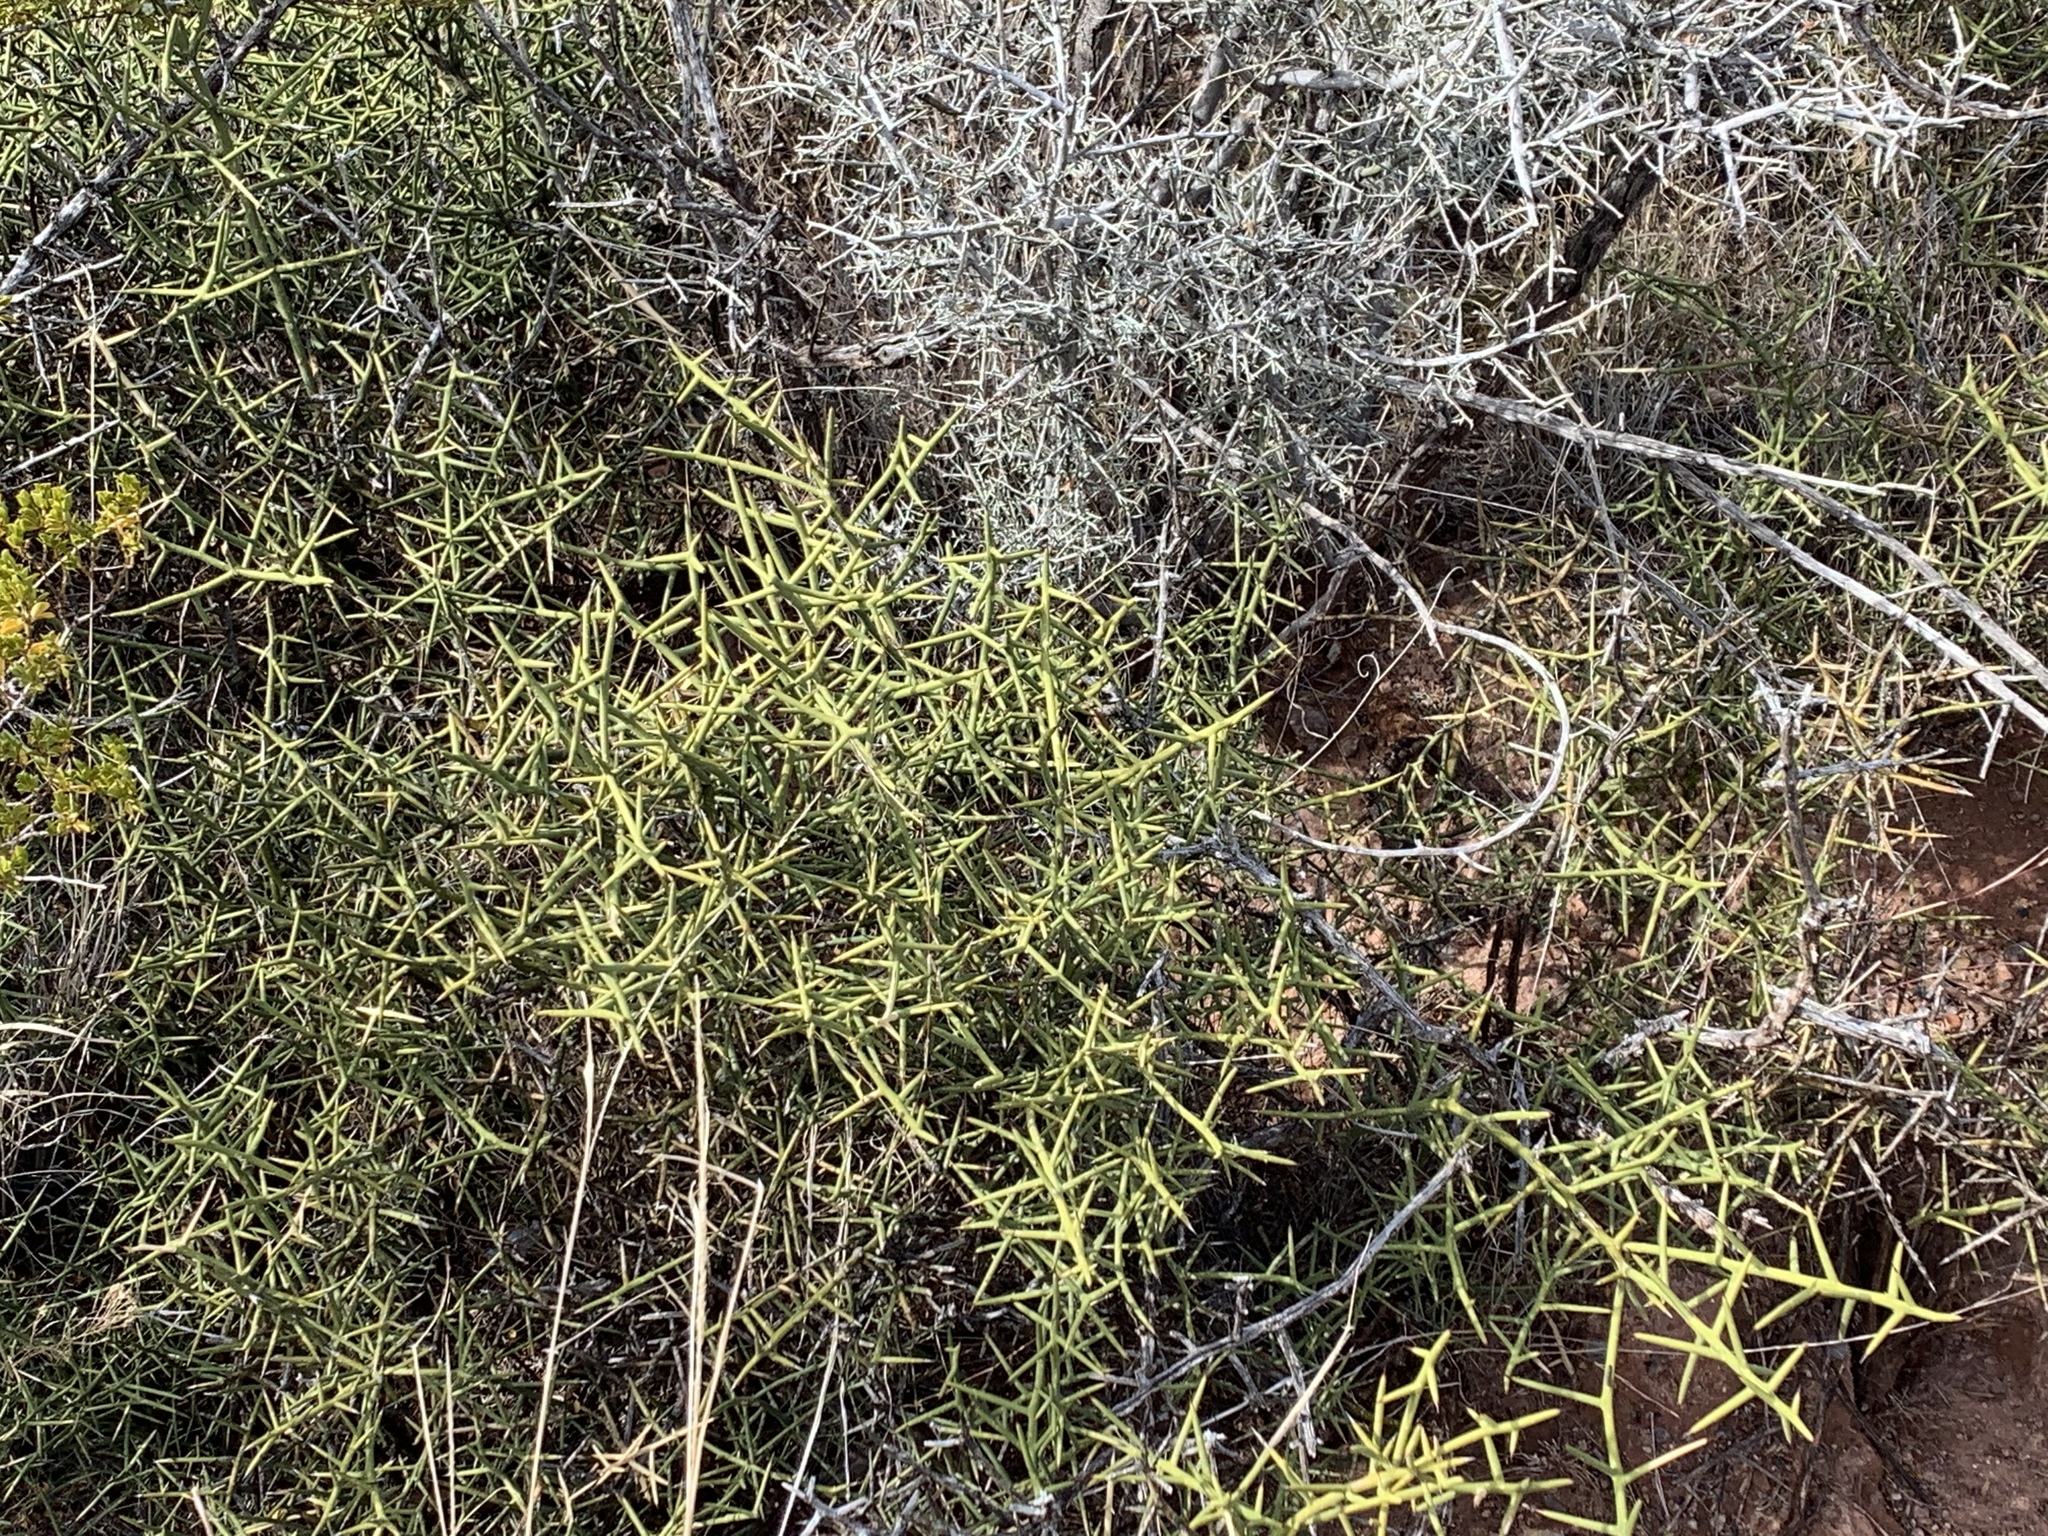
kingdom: Plantae
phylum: Tracheophyta
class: Magnoliopsida
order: Brassicales
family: Koeberliniaceae
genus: Koeberlinia
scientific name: Koeberlinia spinosa
